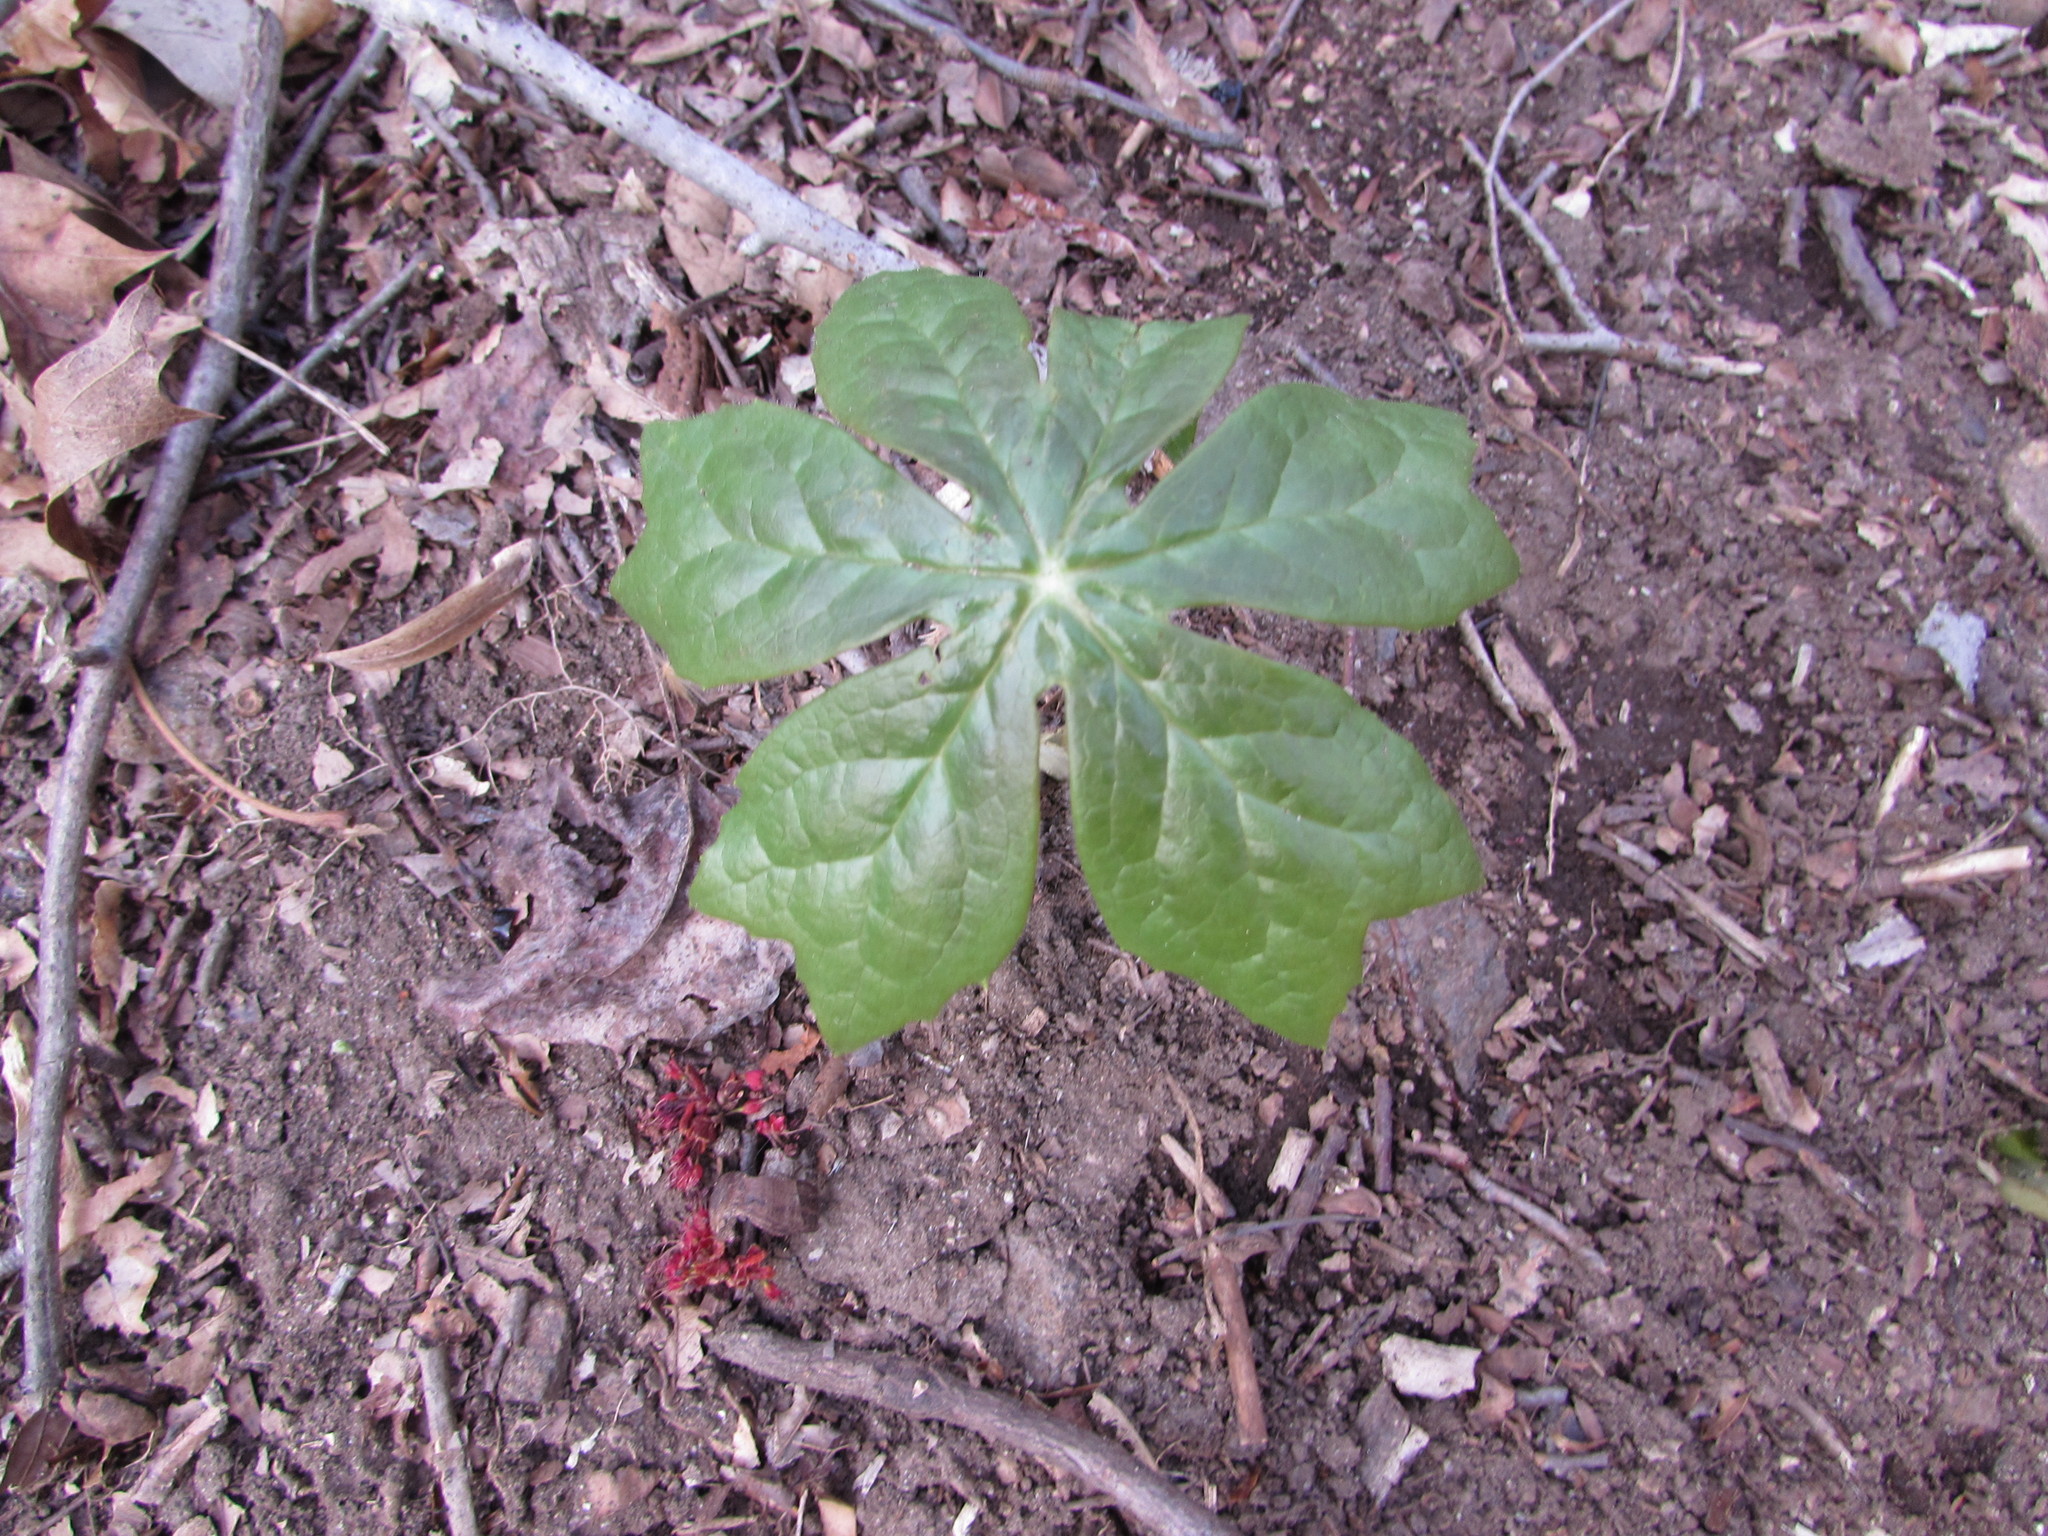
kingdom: Plantae
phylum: Tracheophyta
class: Magnoliopsida
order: Ranunculales
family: Berberidaceae
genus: Podophyllum
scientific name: Podophyllum peltatum
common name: Wild mandrake
